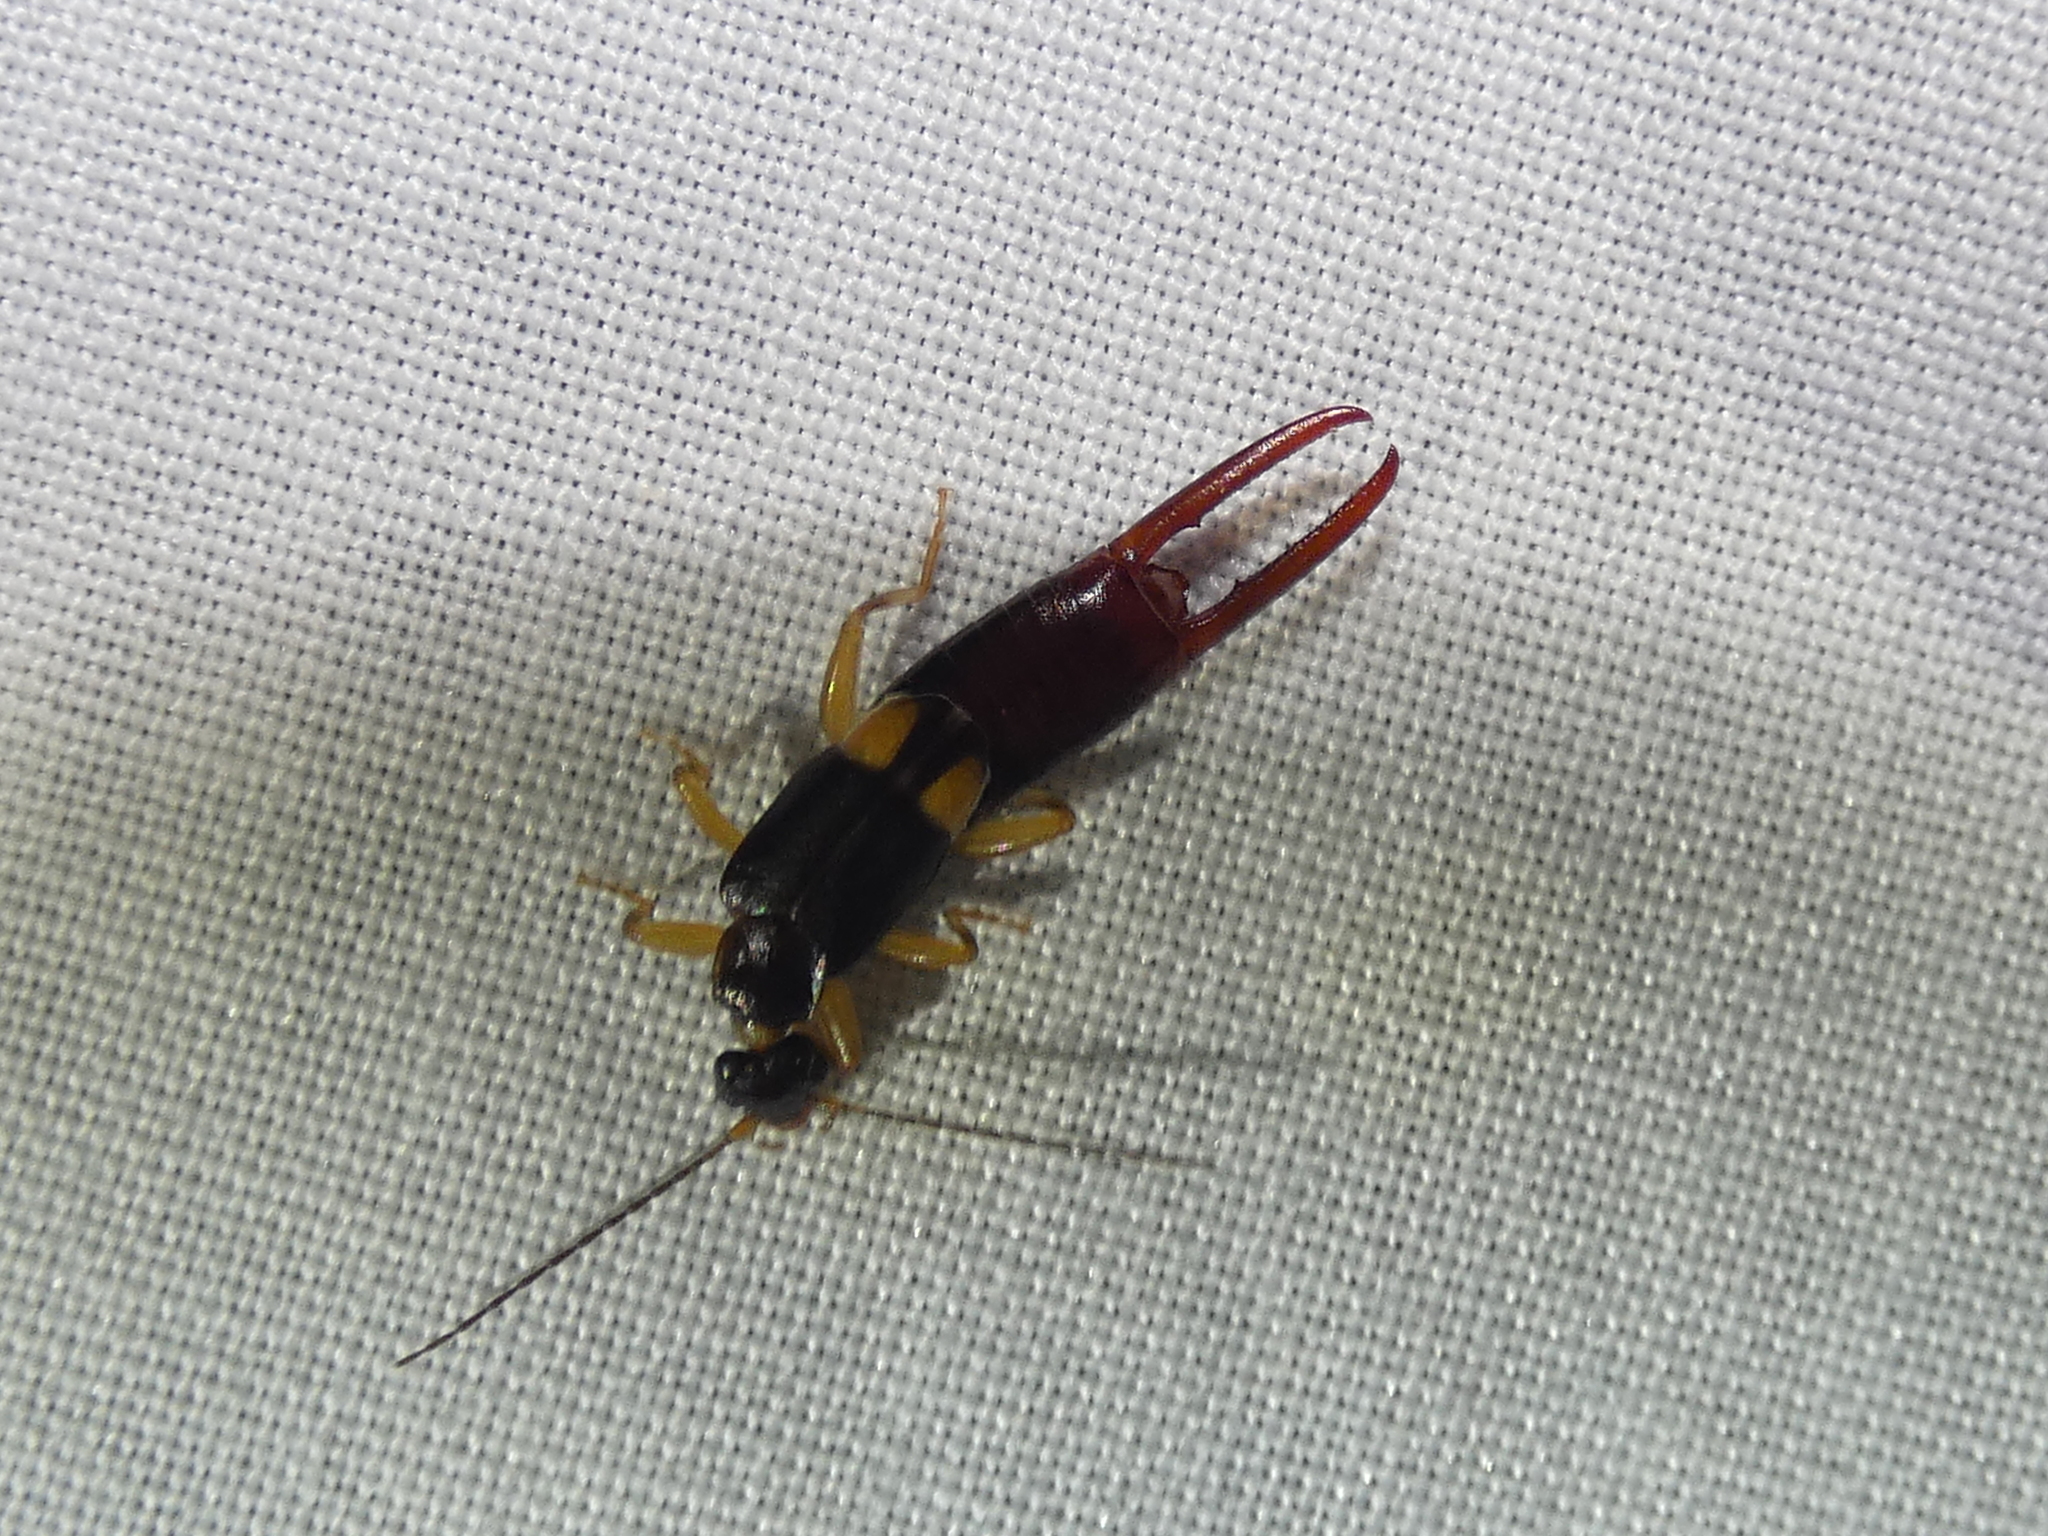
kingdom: Animalia
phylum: Arthropoda
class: Insecta
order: Dermaptera
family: Spongiphoridae
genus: Vostox
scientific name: Vostox brunneipennis
